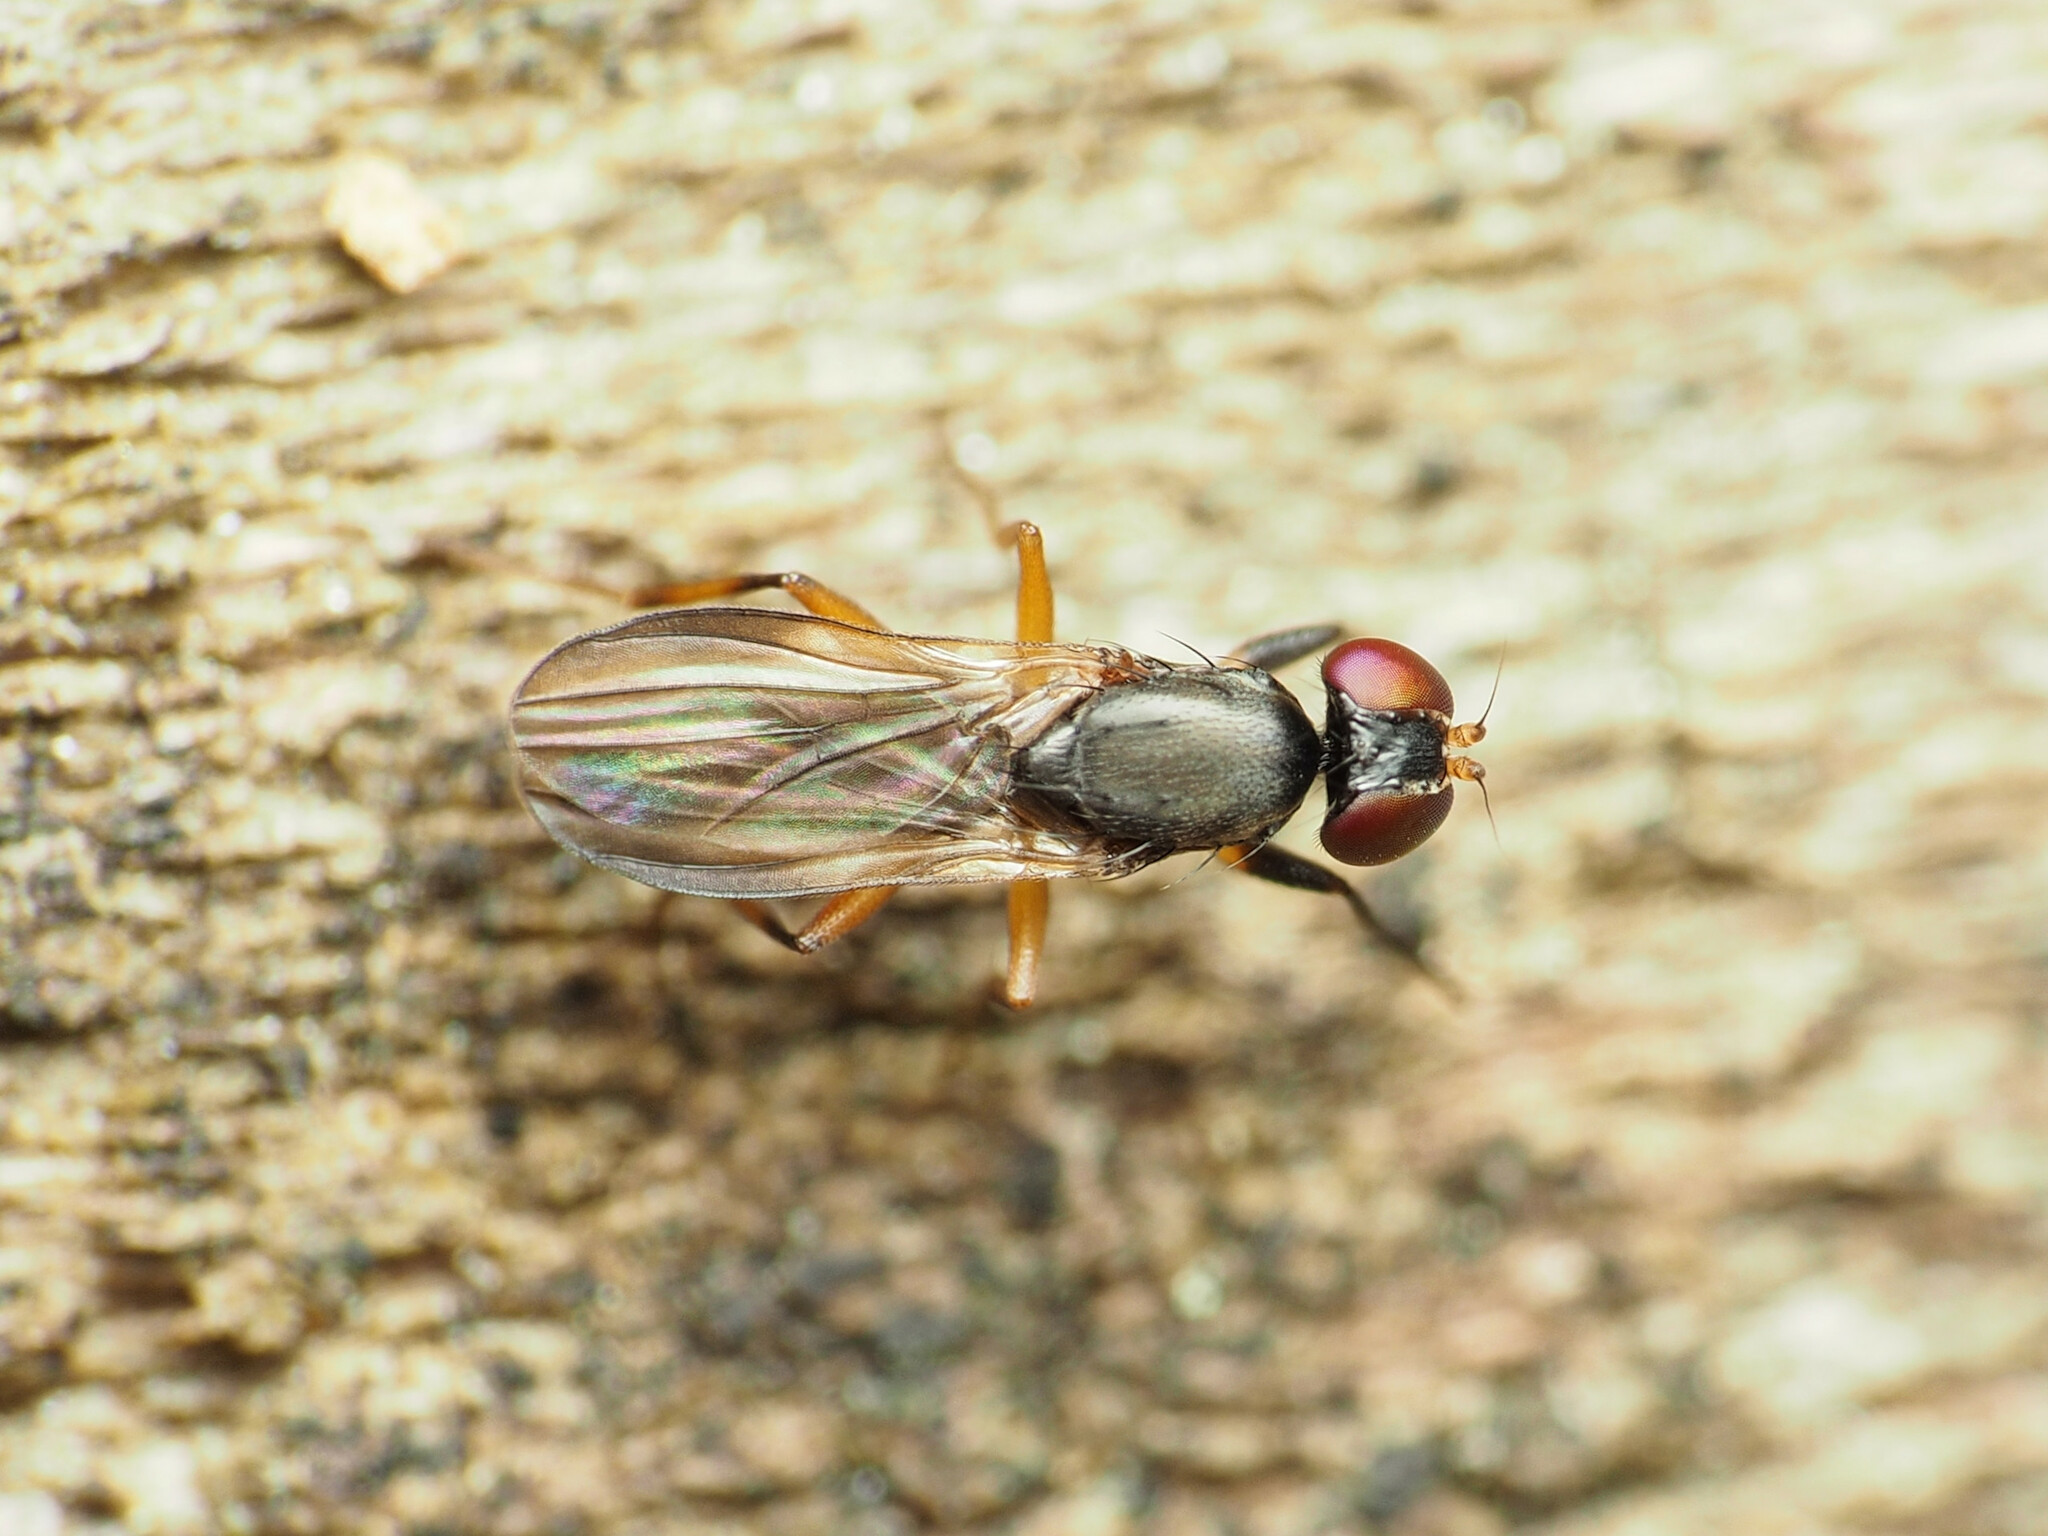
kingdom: Animalia
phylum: Arthropoda
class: Insecta
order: Diptera
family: Clusiidae
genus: Heteromeringia
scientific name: Heteromeringia nitida
